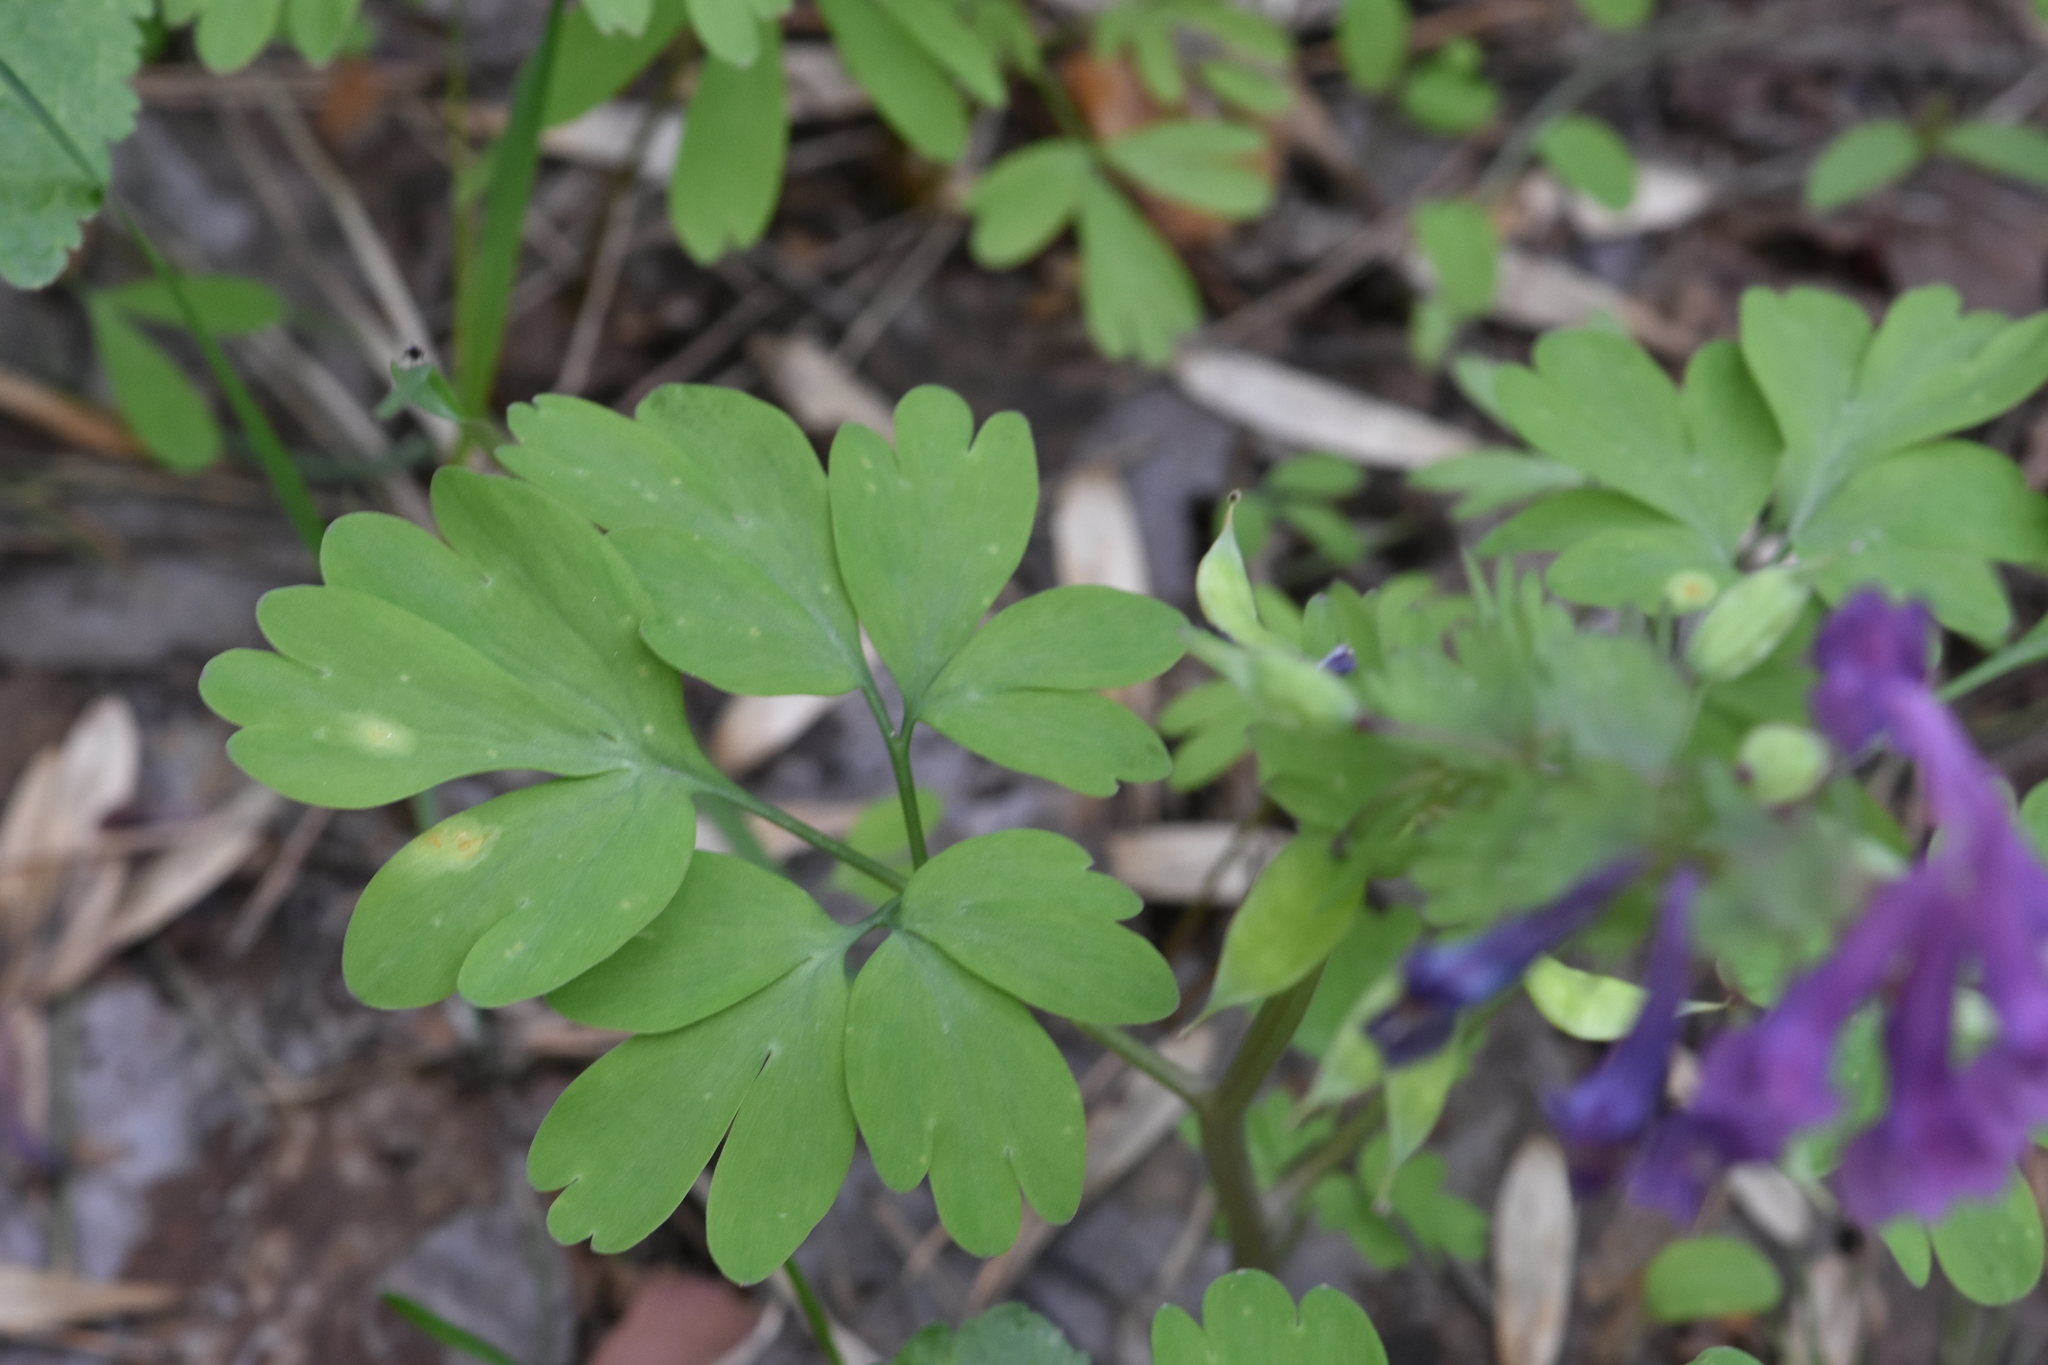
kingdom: Plantae
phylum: Tracheophyta
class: Magnoliopsida
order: Ranunculales
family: Papaveraceae
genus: Corydalis
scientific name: Corydalis solida
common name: Bird-in-a-bush
